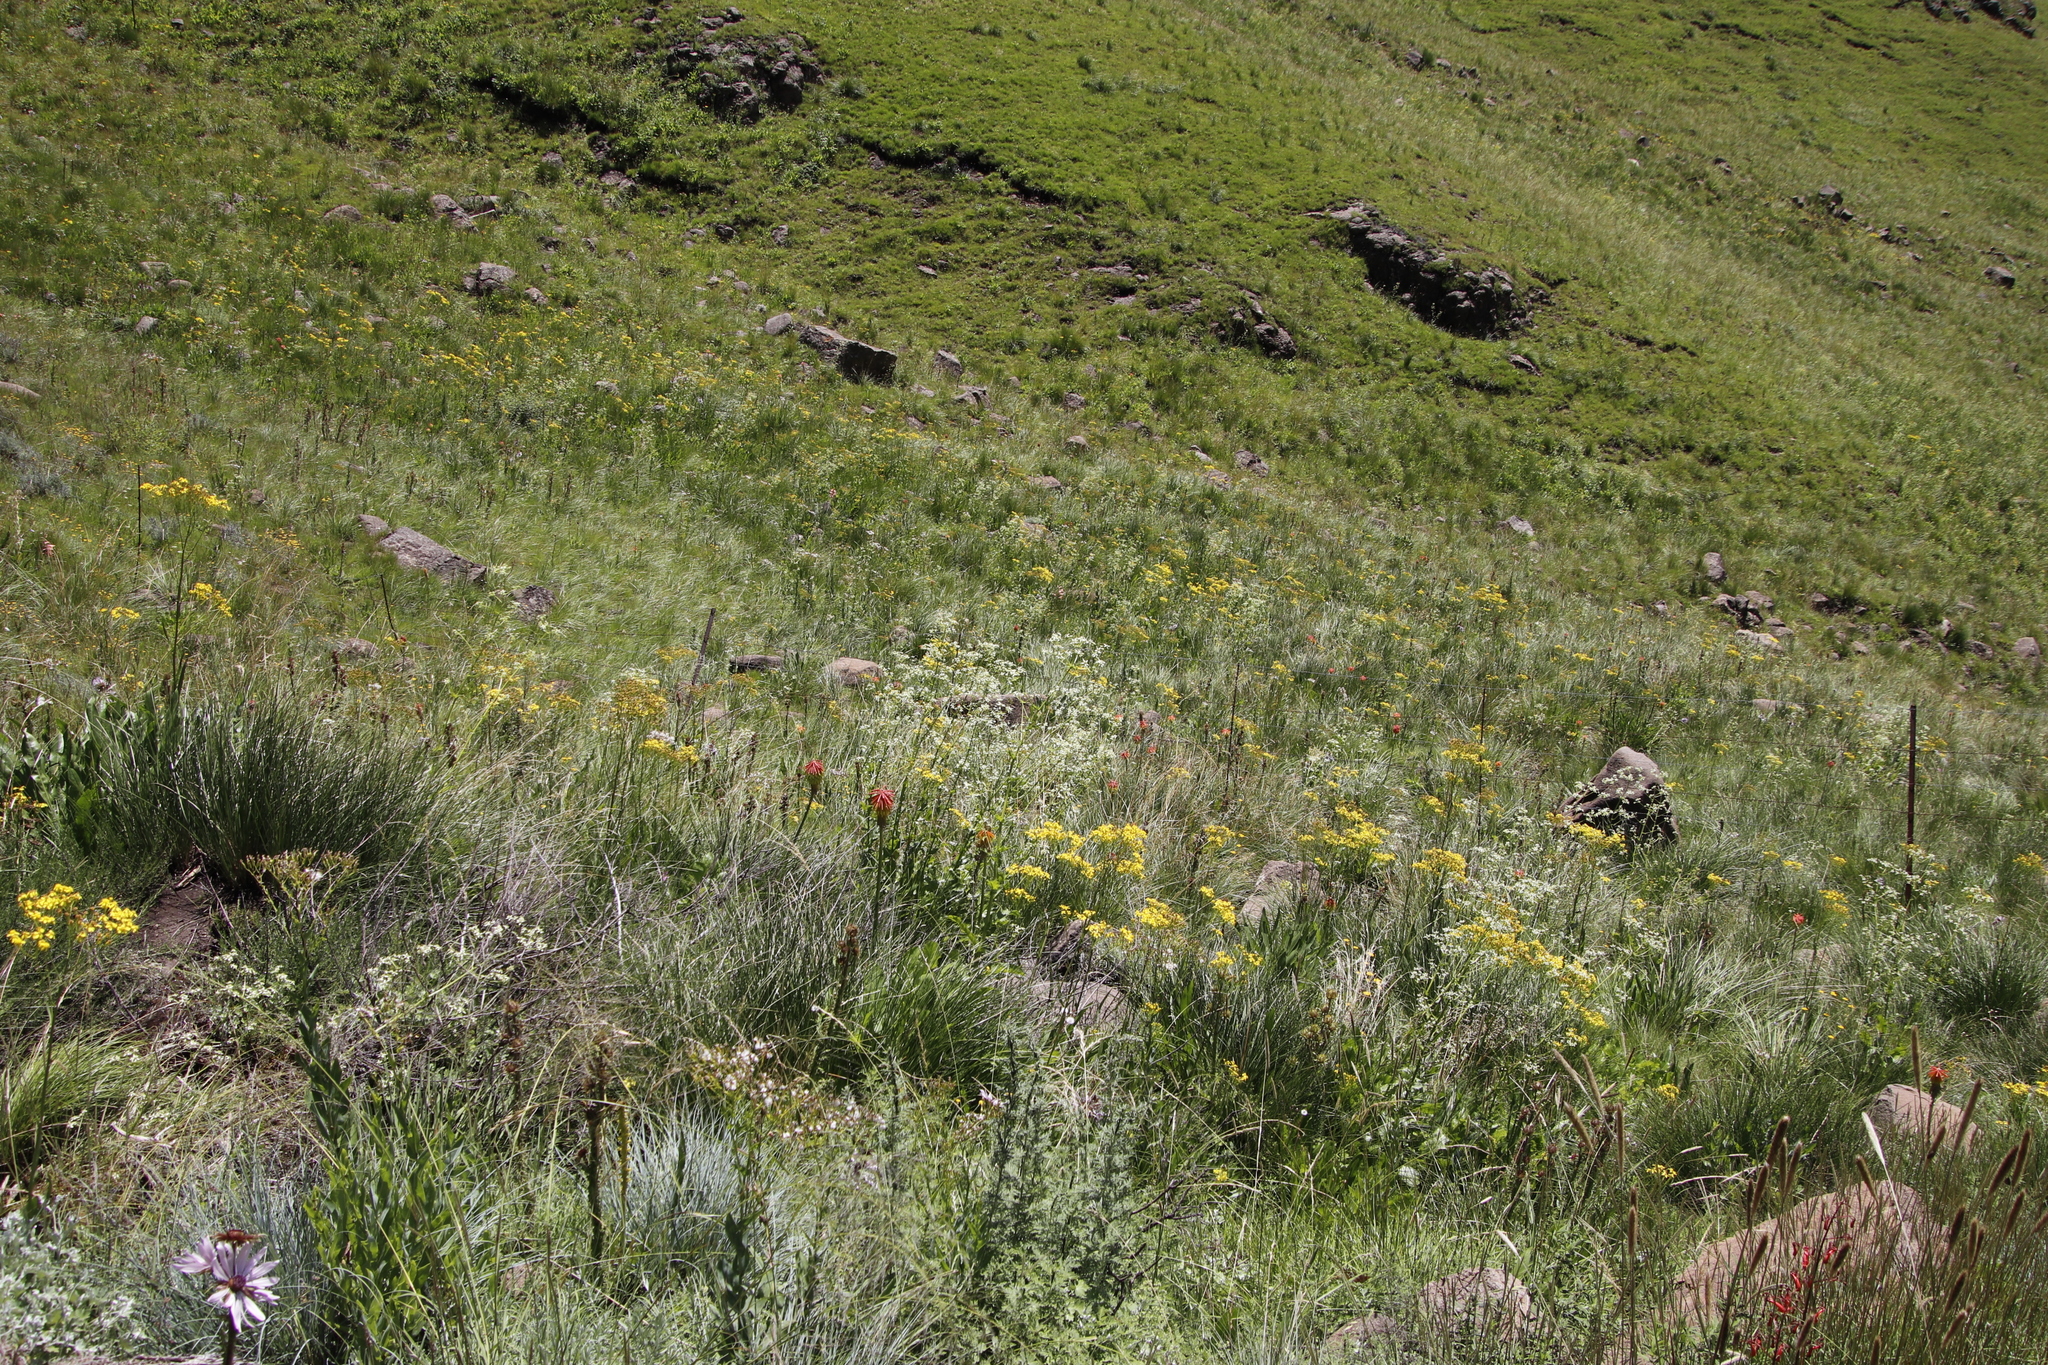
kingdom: Plantae
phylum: Tracheophyta
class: Magnoliopsida
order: Apiales
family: Apiaceae
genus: Alepidea
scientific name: Alepidea amatymbica
